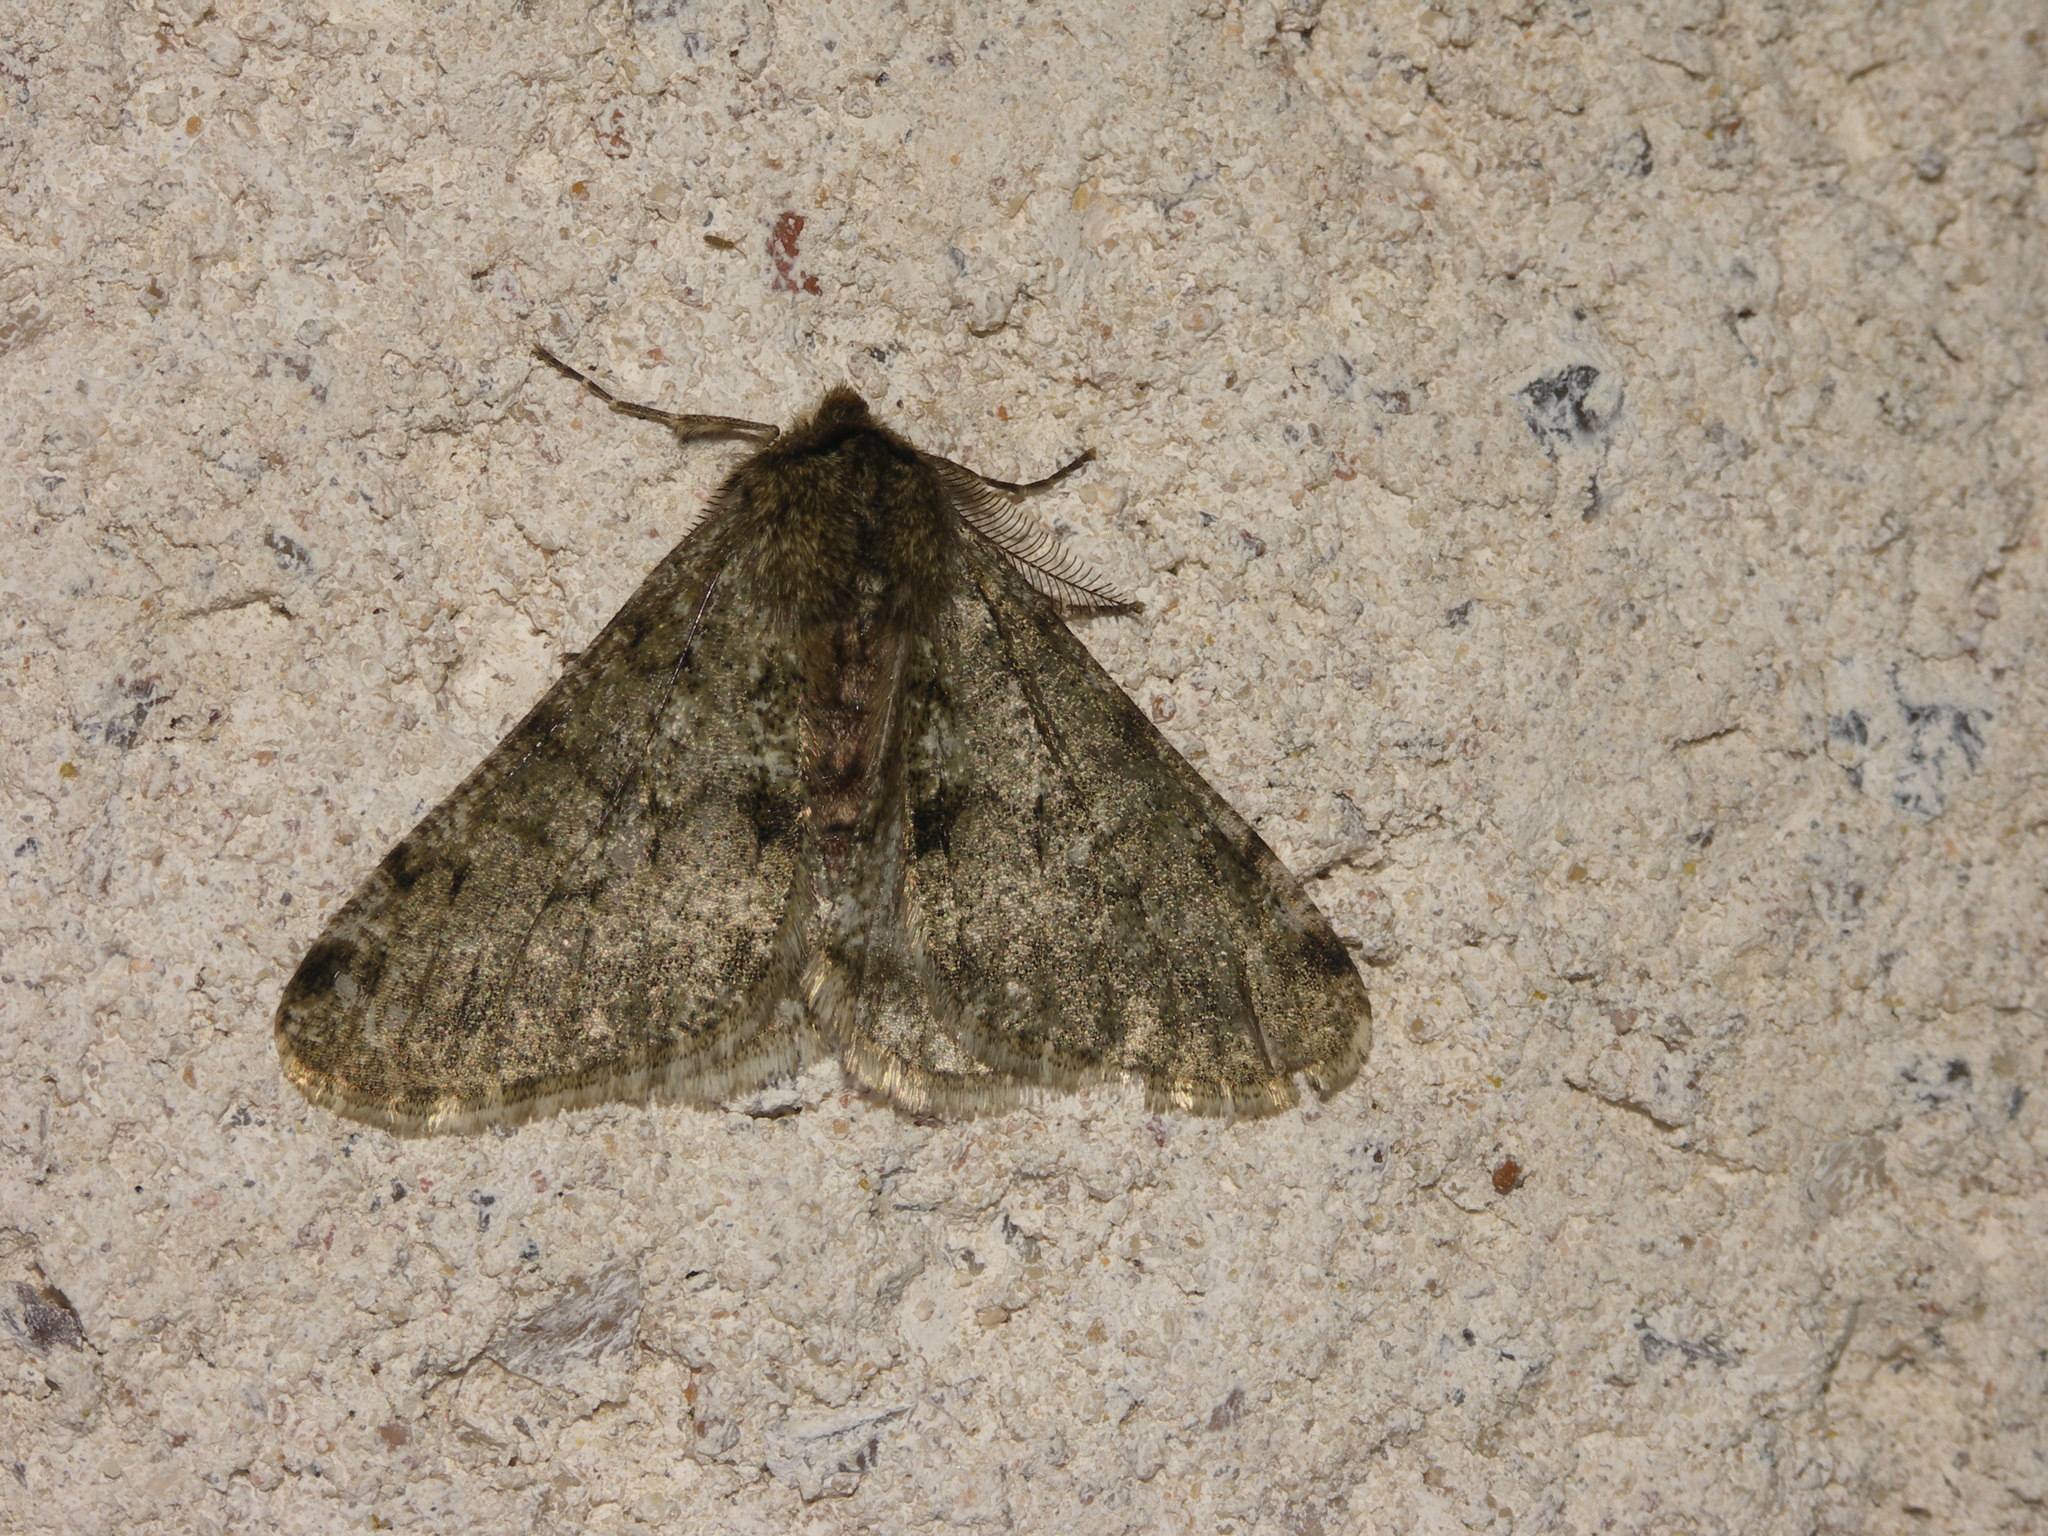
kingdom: Animalia
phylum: Arthropoda
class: Insecta
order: Lepidoptera
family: Geometridae
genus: Phigalia
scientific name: Phigalia pilosaria
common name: Pale brindled beauty
